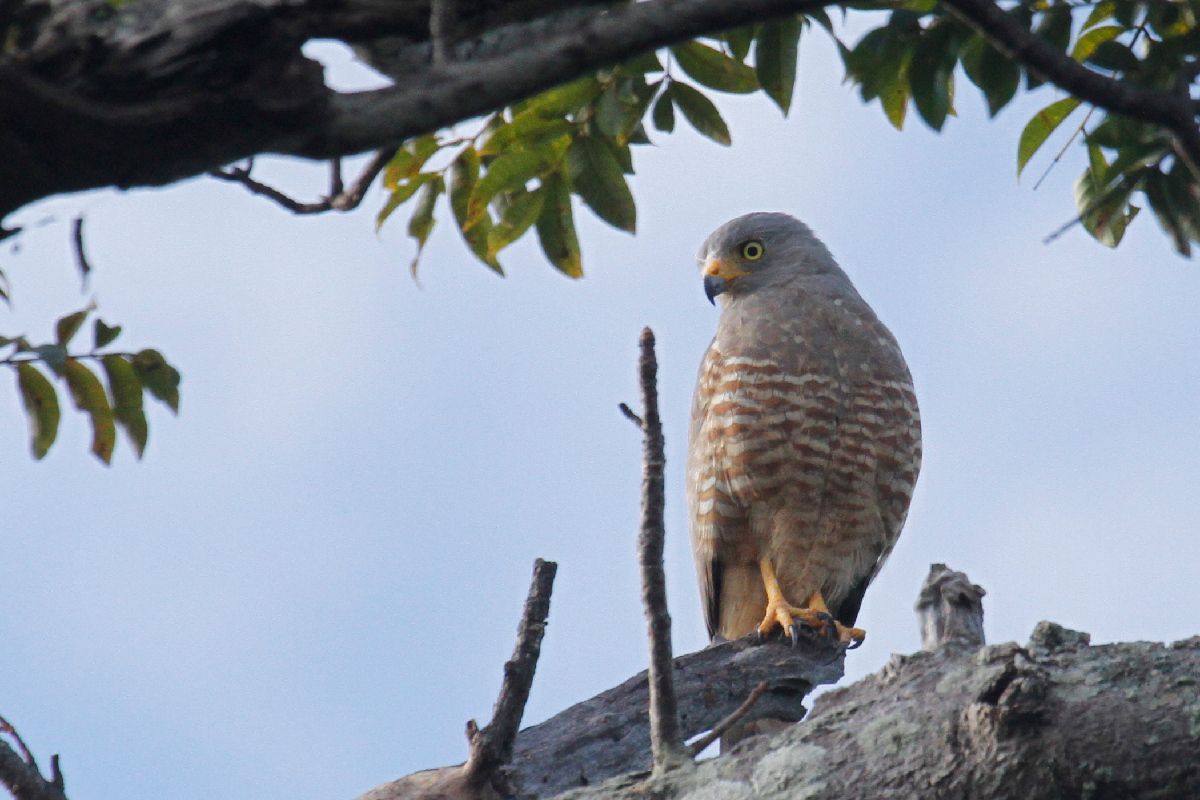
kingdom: Animalia
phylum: Chordata
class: Aves
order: Accipitriformes
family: Accipitridae
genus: Rupornis
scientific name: Rupornis magnirostris
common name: Roadside hawk
